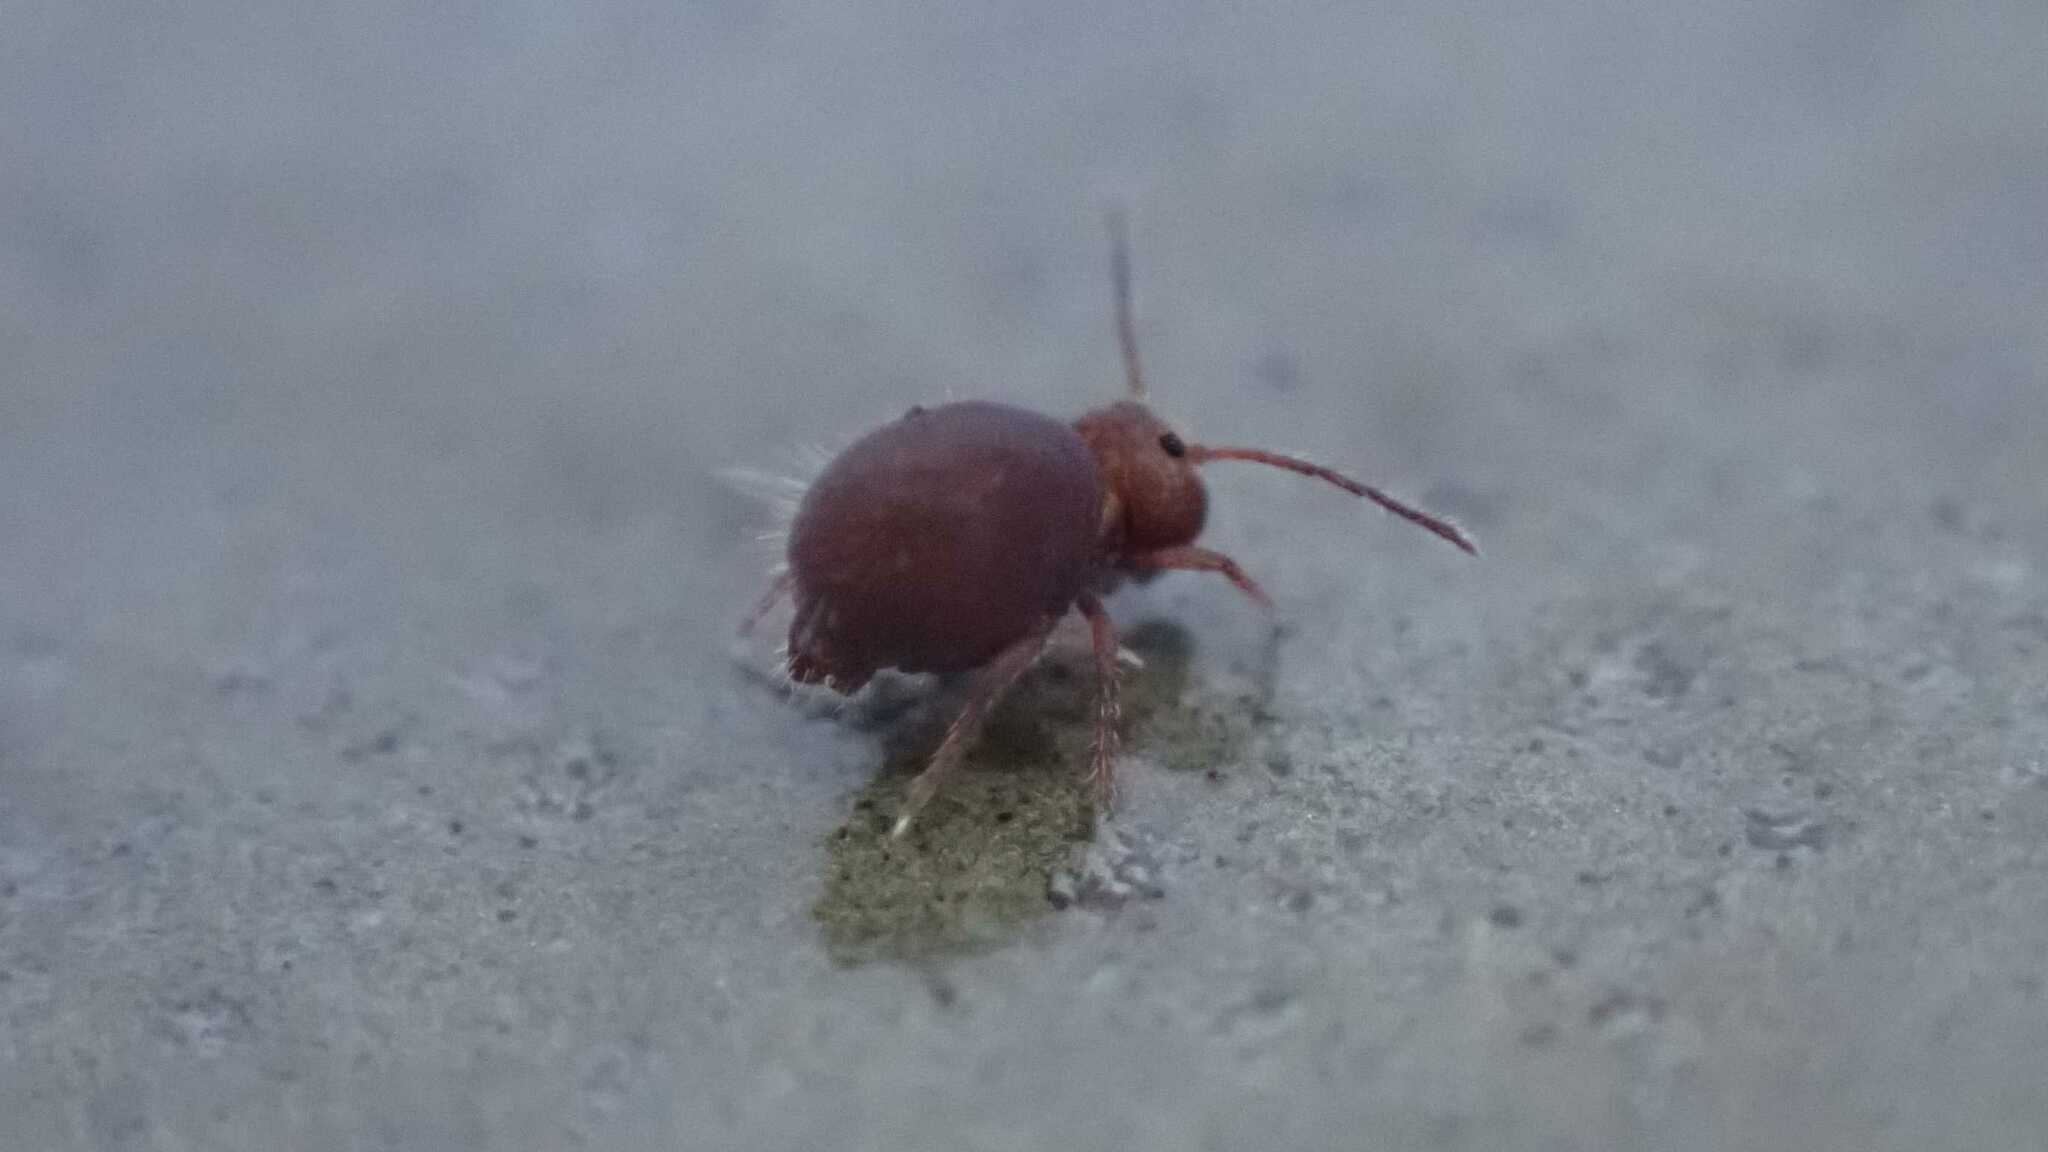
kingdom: Animalia
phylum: Arthropoda
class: Collembola
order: Symphypleona
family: Dicyrtomidae
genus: Dicyrtoma
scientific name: Dicyrtoma fusca
